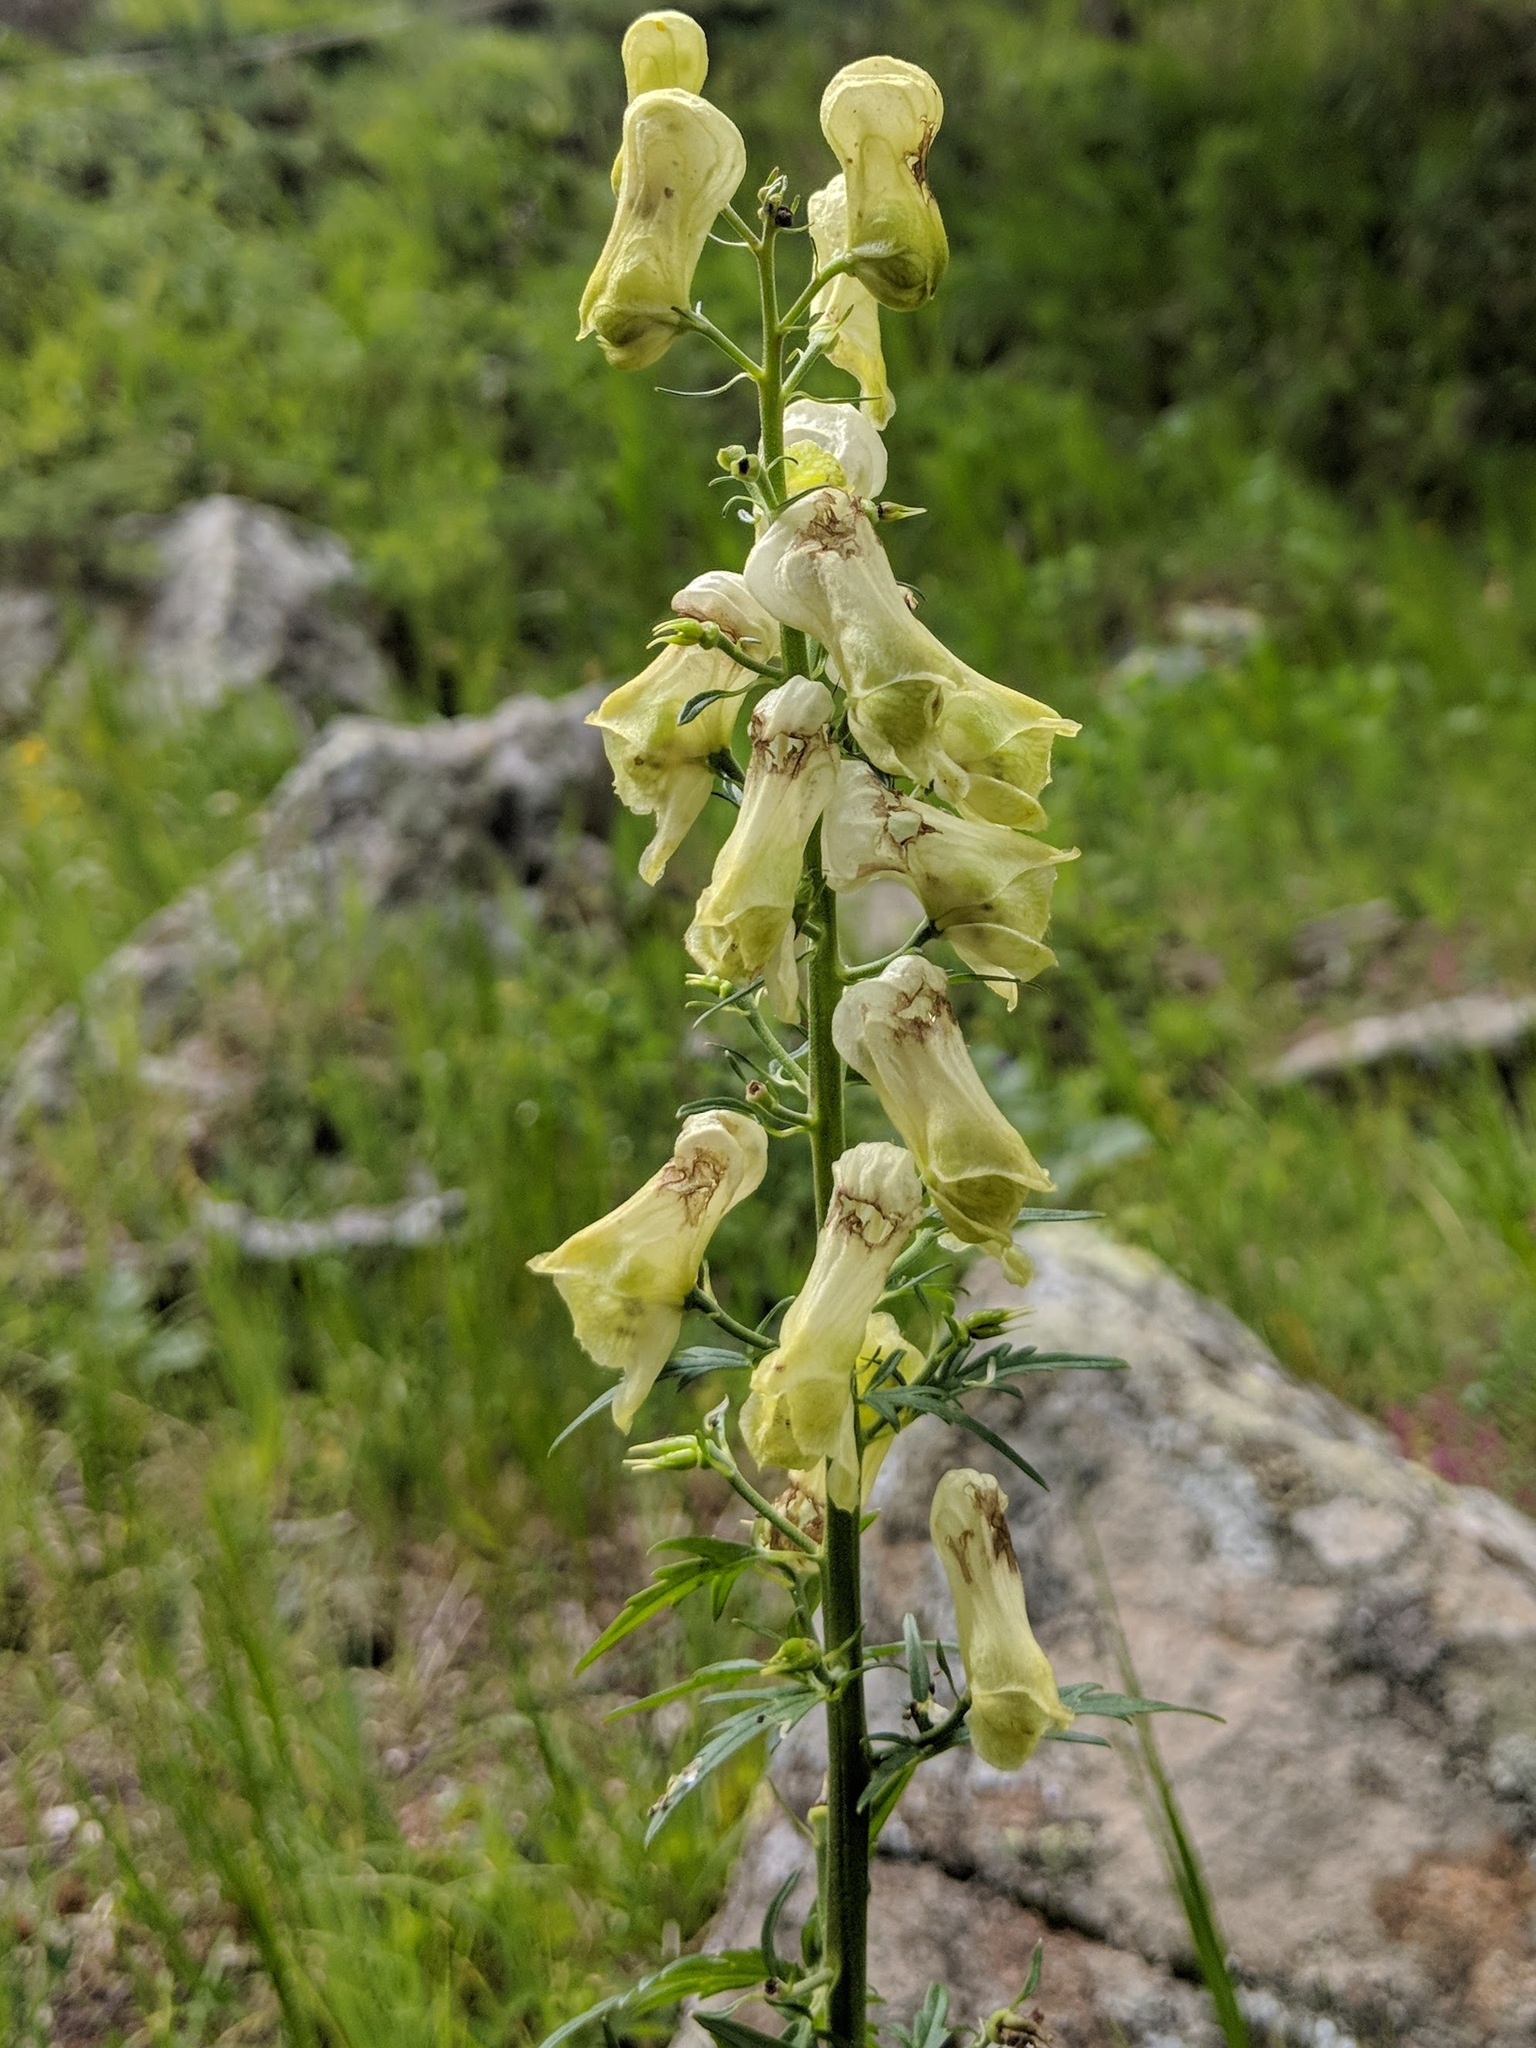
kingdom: Plantae
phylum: Tracheophyta
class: Magnoliopsida
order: Ranunculales
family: Ranunculaceae
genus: Aconitum
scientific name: Aconitum lycoctonum
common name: Wolf's-bane
